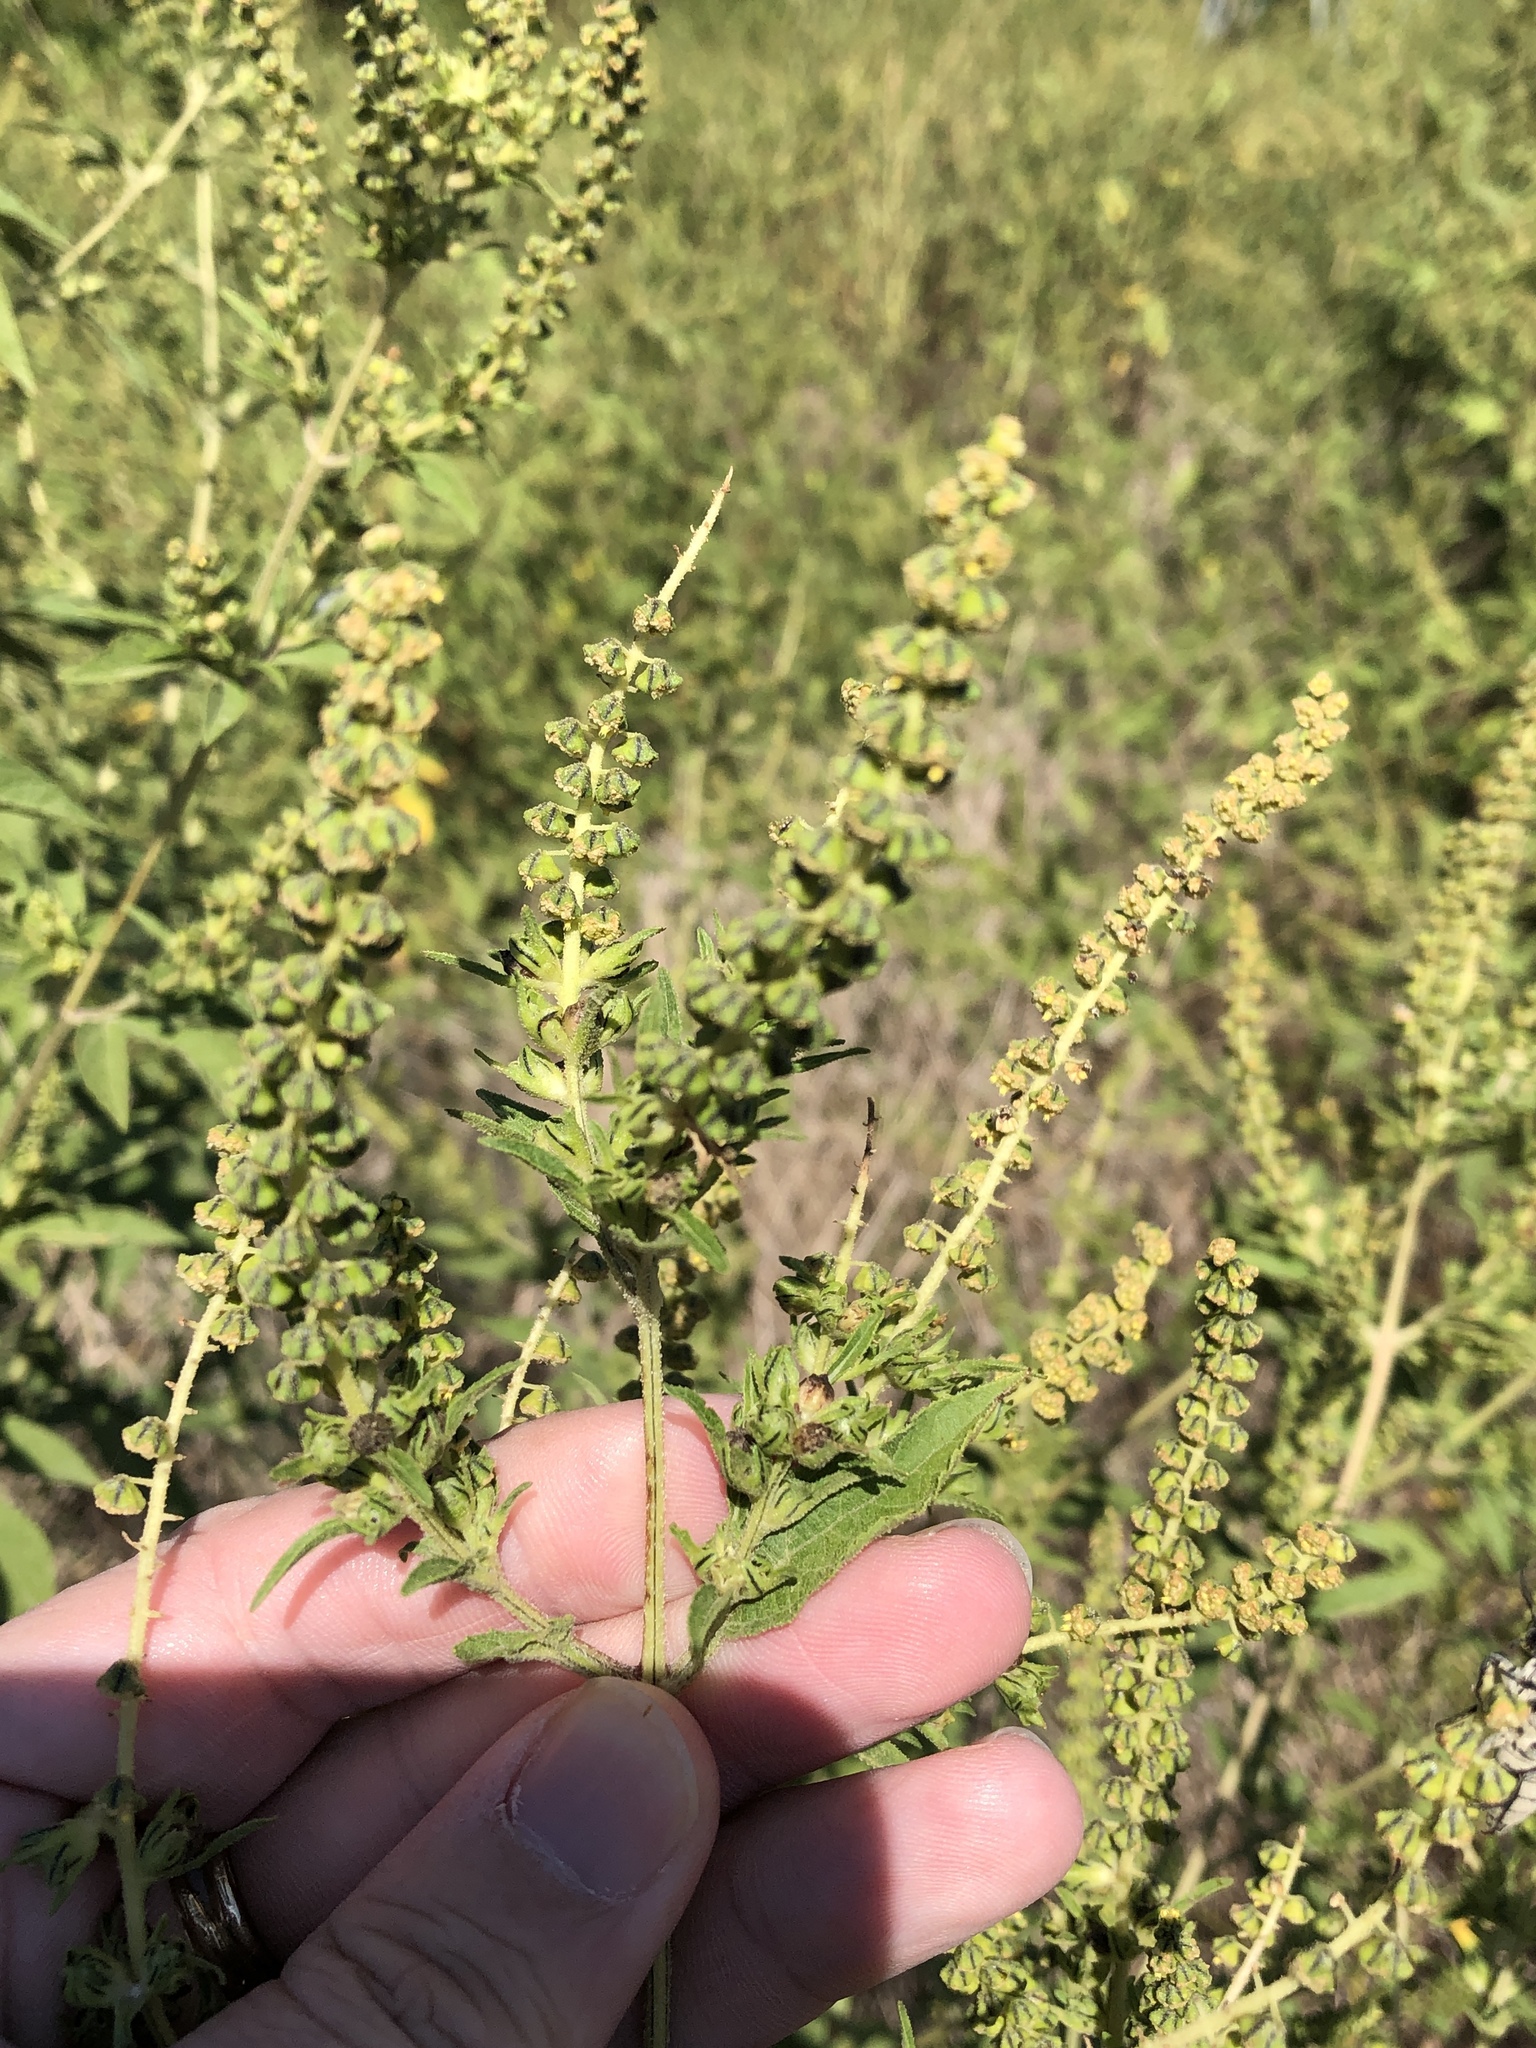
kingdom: Plantae
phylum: Tracheophyta
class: Magnoliopsida
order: Asterales
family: Asteraceae
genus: Ambrosia
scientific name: Ambrosia trifida
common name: Giant ragweed
